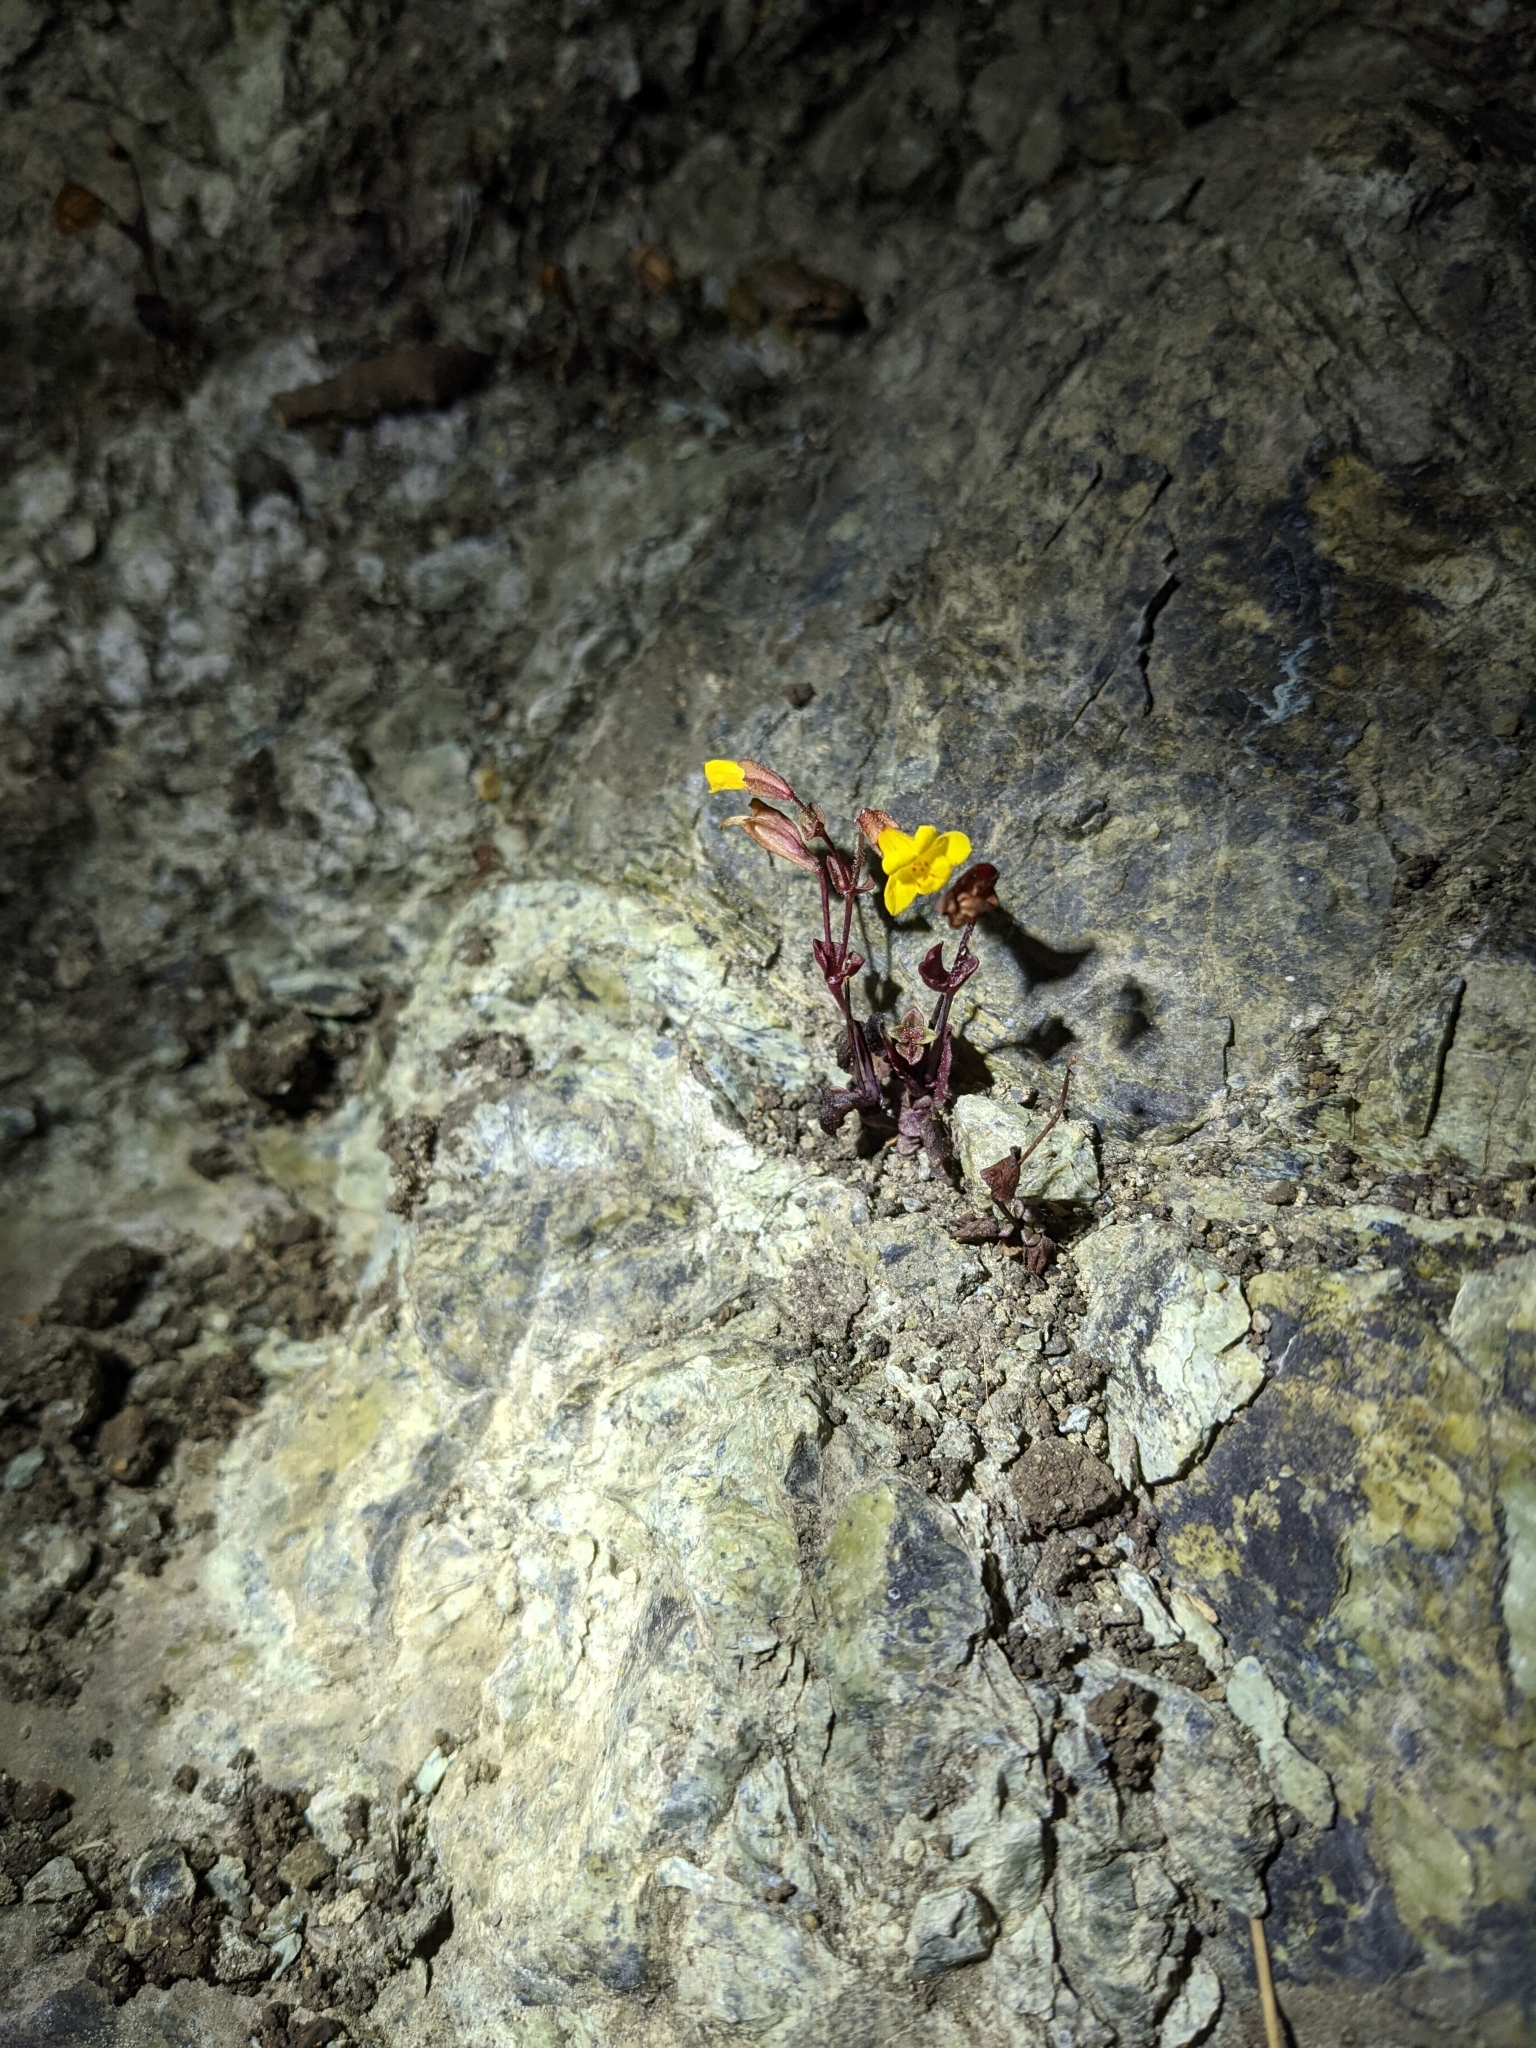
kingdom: Plantae
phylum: Tracheophyta
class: Magnoliopsida
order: Lamiales
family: Phrymaceae
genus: Erythranthe
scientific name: Erythranthe serpentinicola
